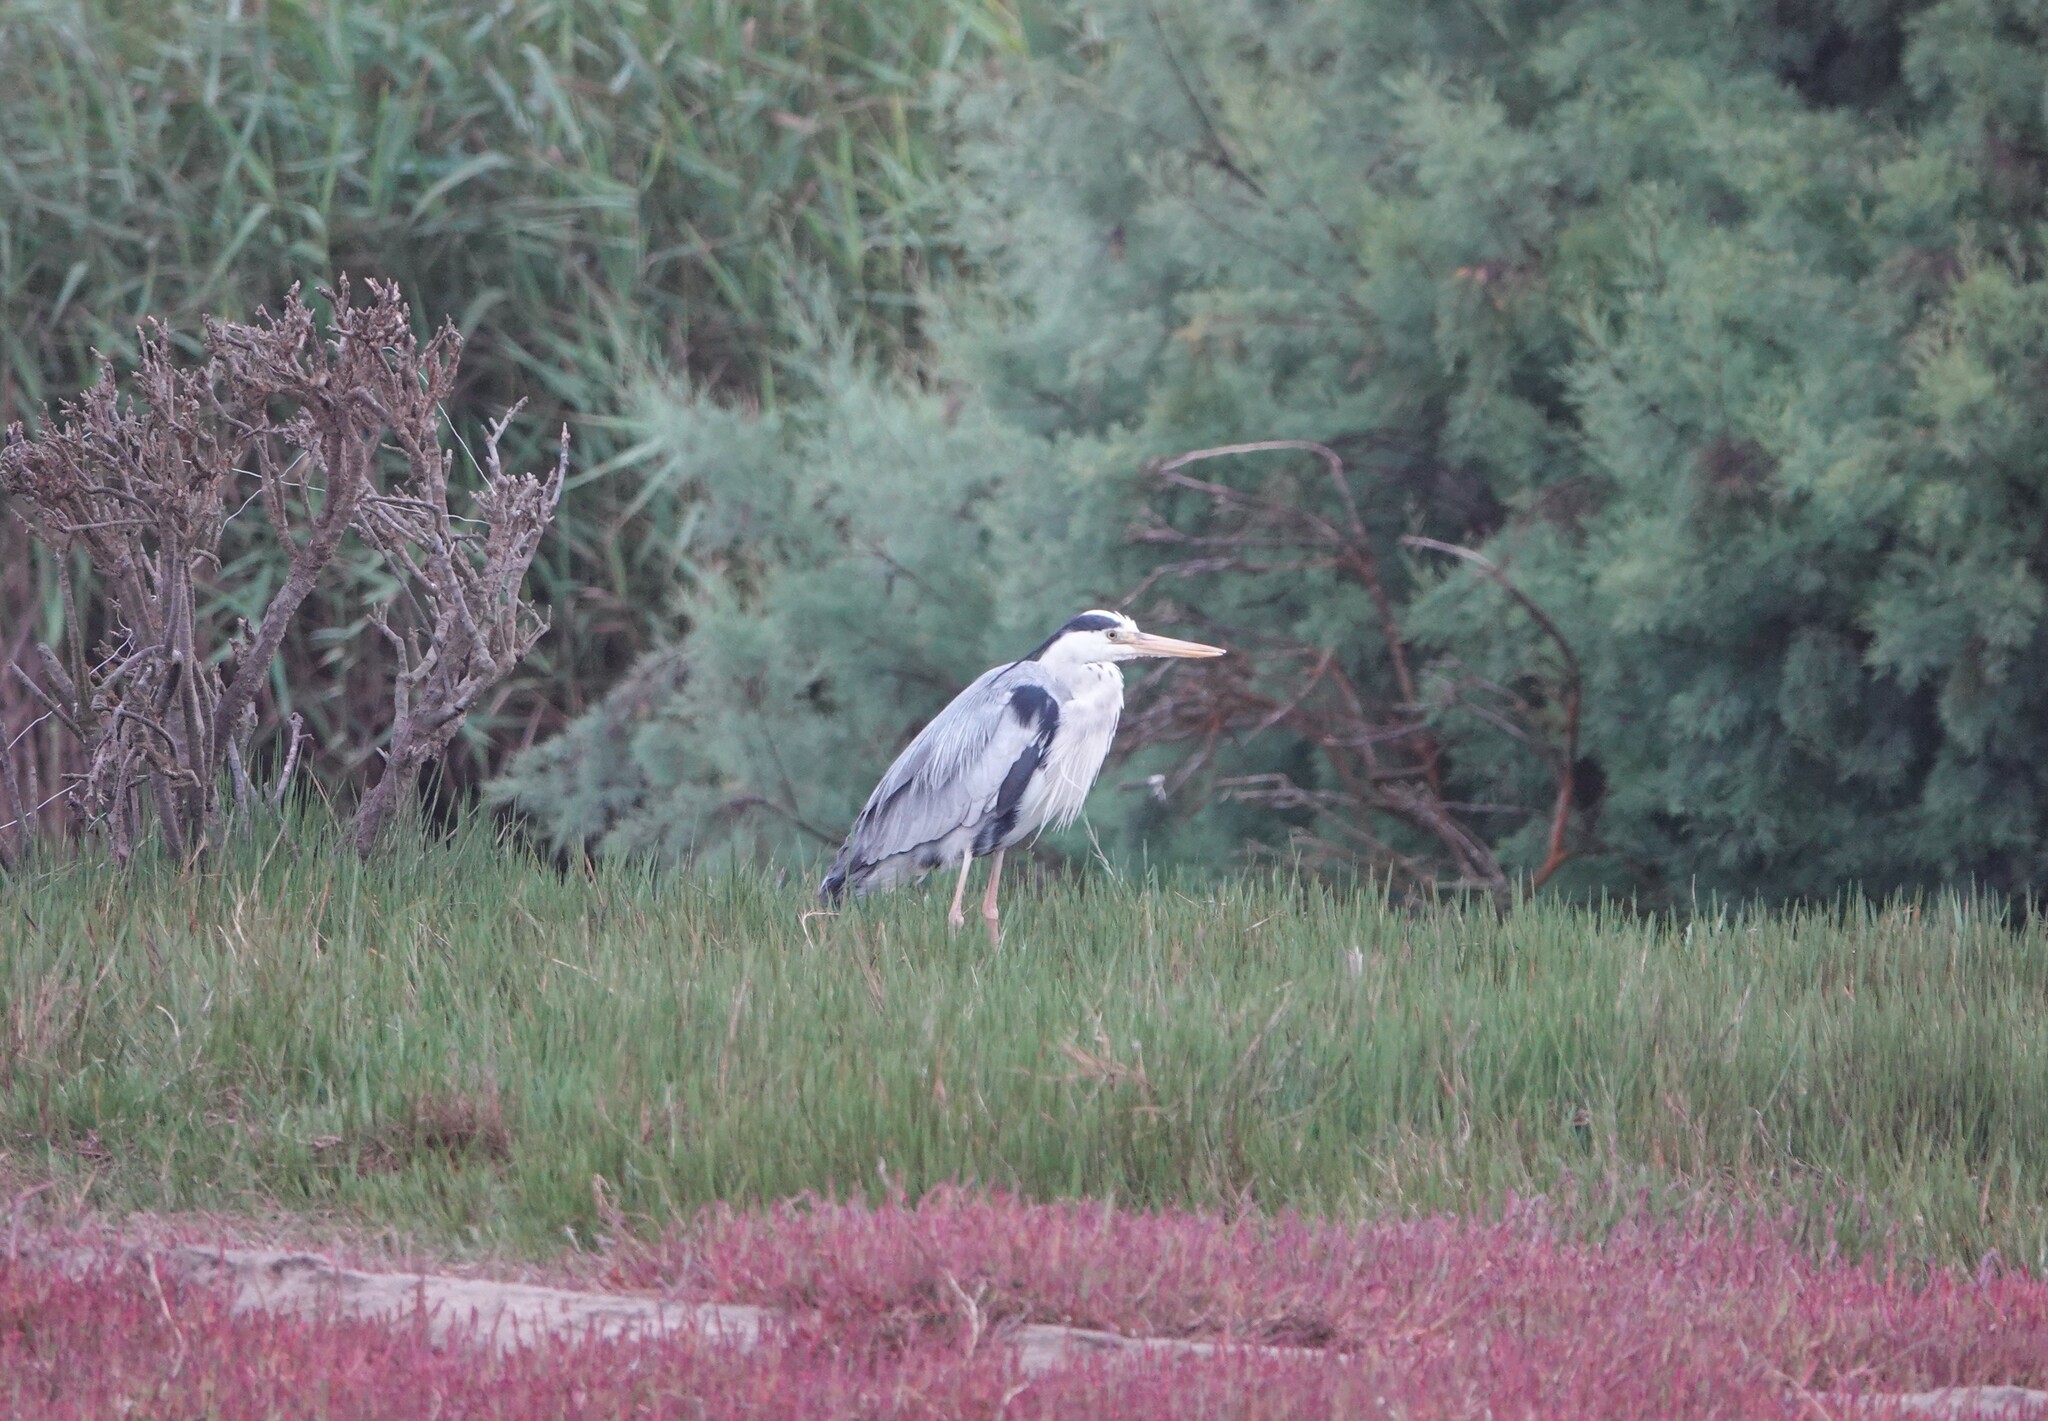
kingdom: Animalia
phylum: Chordata
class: Aves
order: Pelecaniformes
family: Ardeidae
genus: Ardea
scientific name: Ardea cinerea
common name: Grey heron
